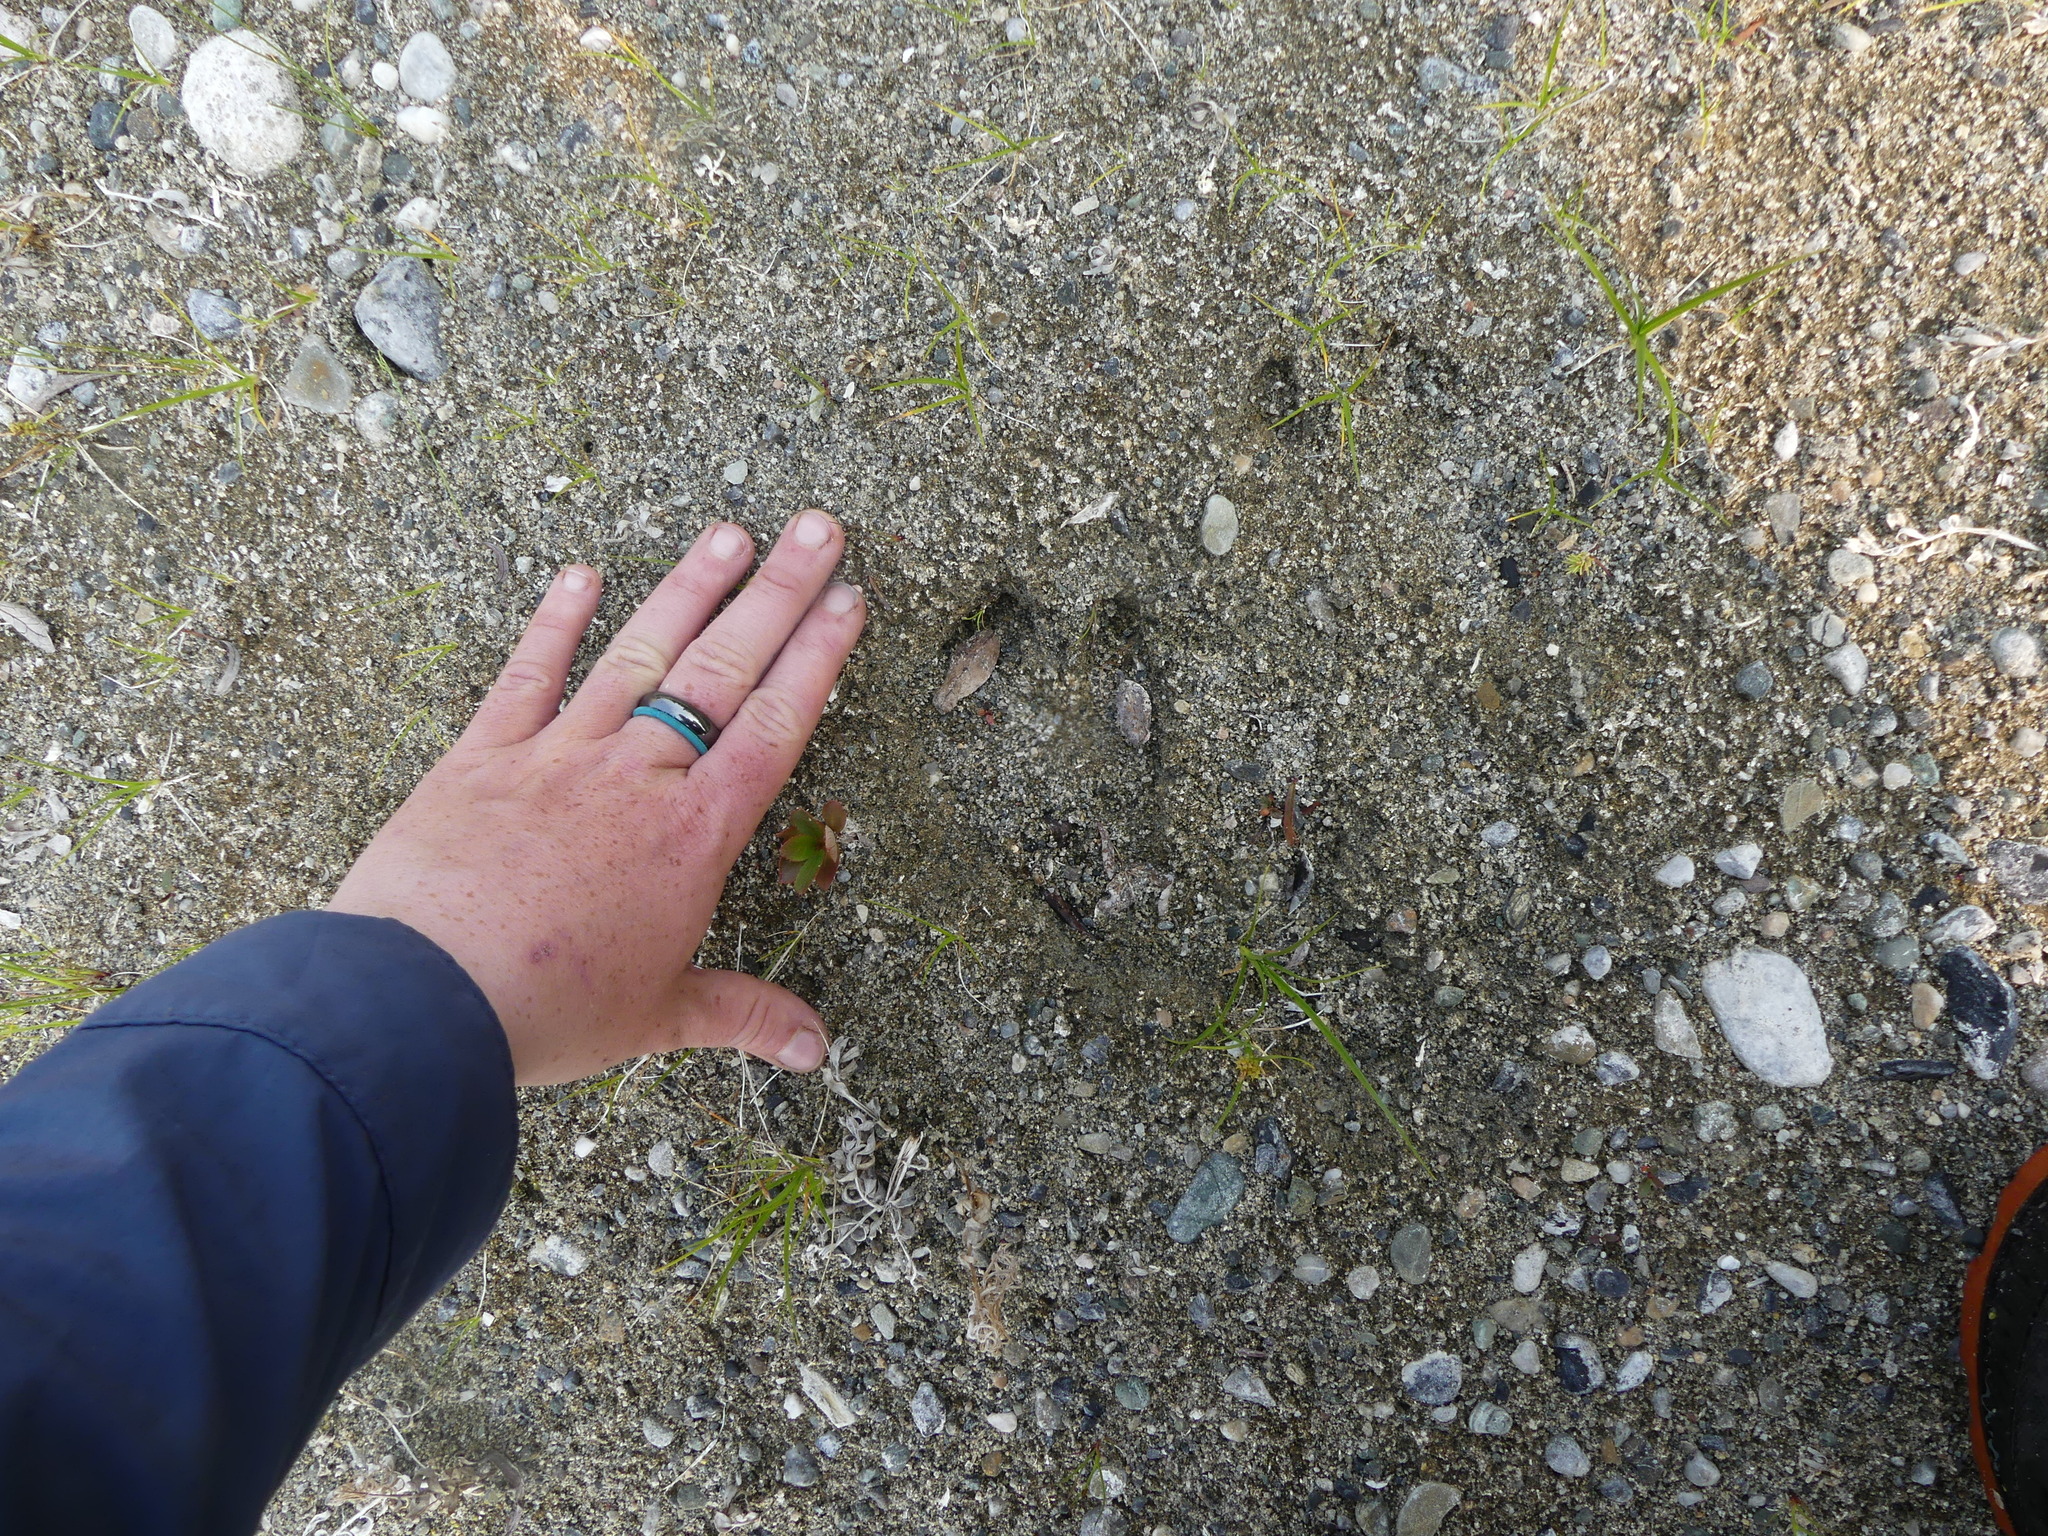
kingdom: Animalia
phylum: Chordata
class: Mammalia
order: Artiodactyla
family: Cervidae
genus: Odocoileus
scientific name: Odocoileus virginianus
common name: White-tailed deer
